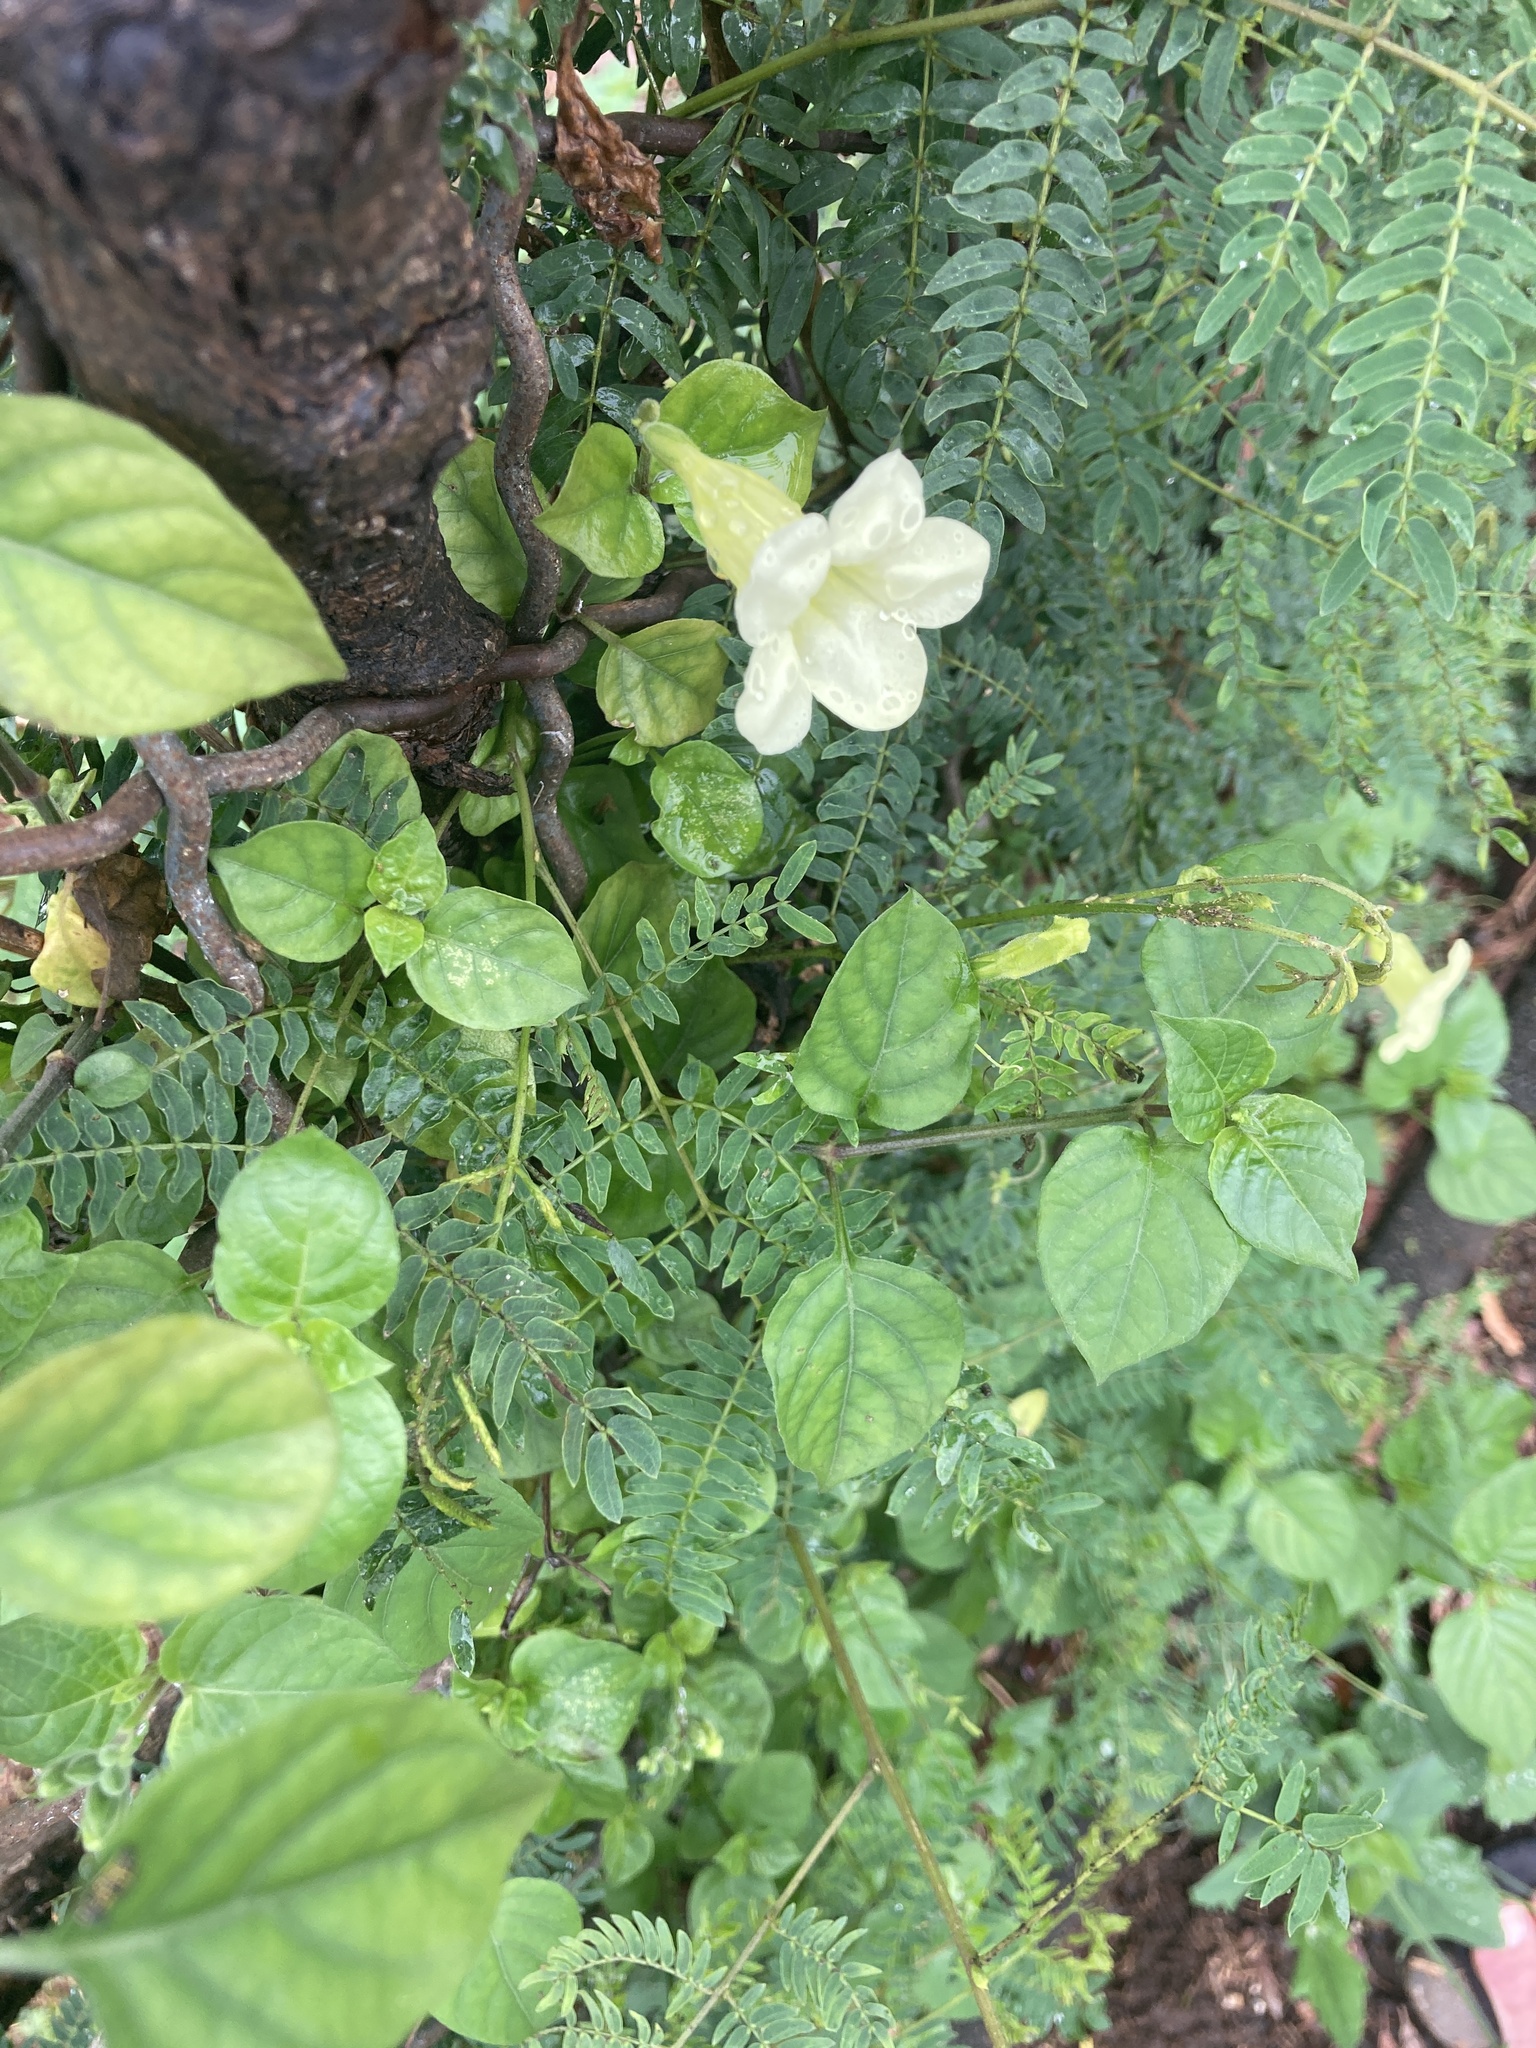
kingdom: Plantae
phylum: Tracheophyta
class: Magnoliopsida
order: Lamiales
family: Acanthaceae
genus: Asystasia
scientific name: Asystasia gangetica
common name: Chinese violet
